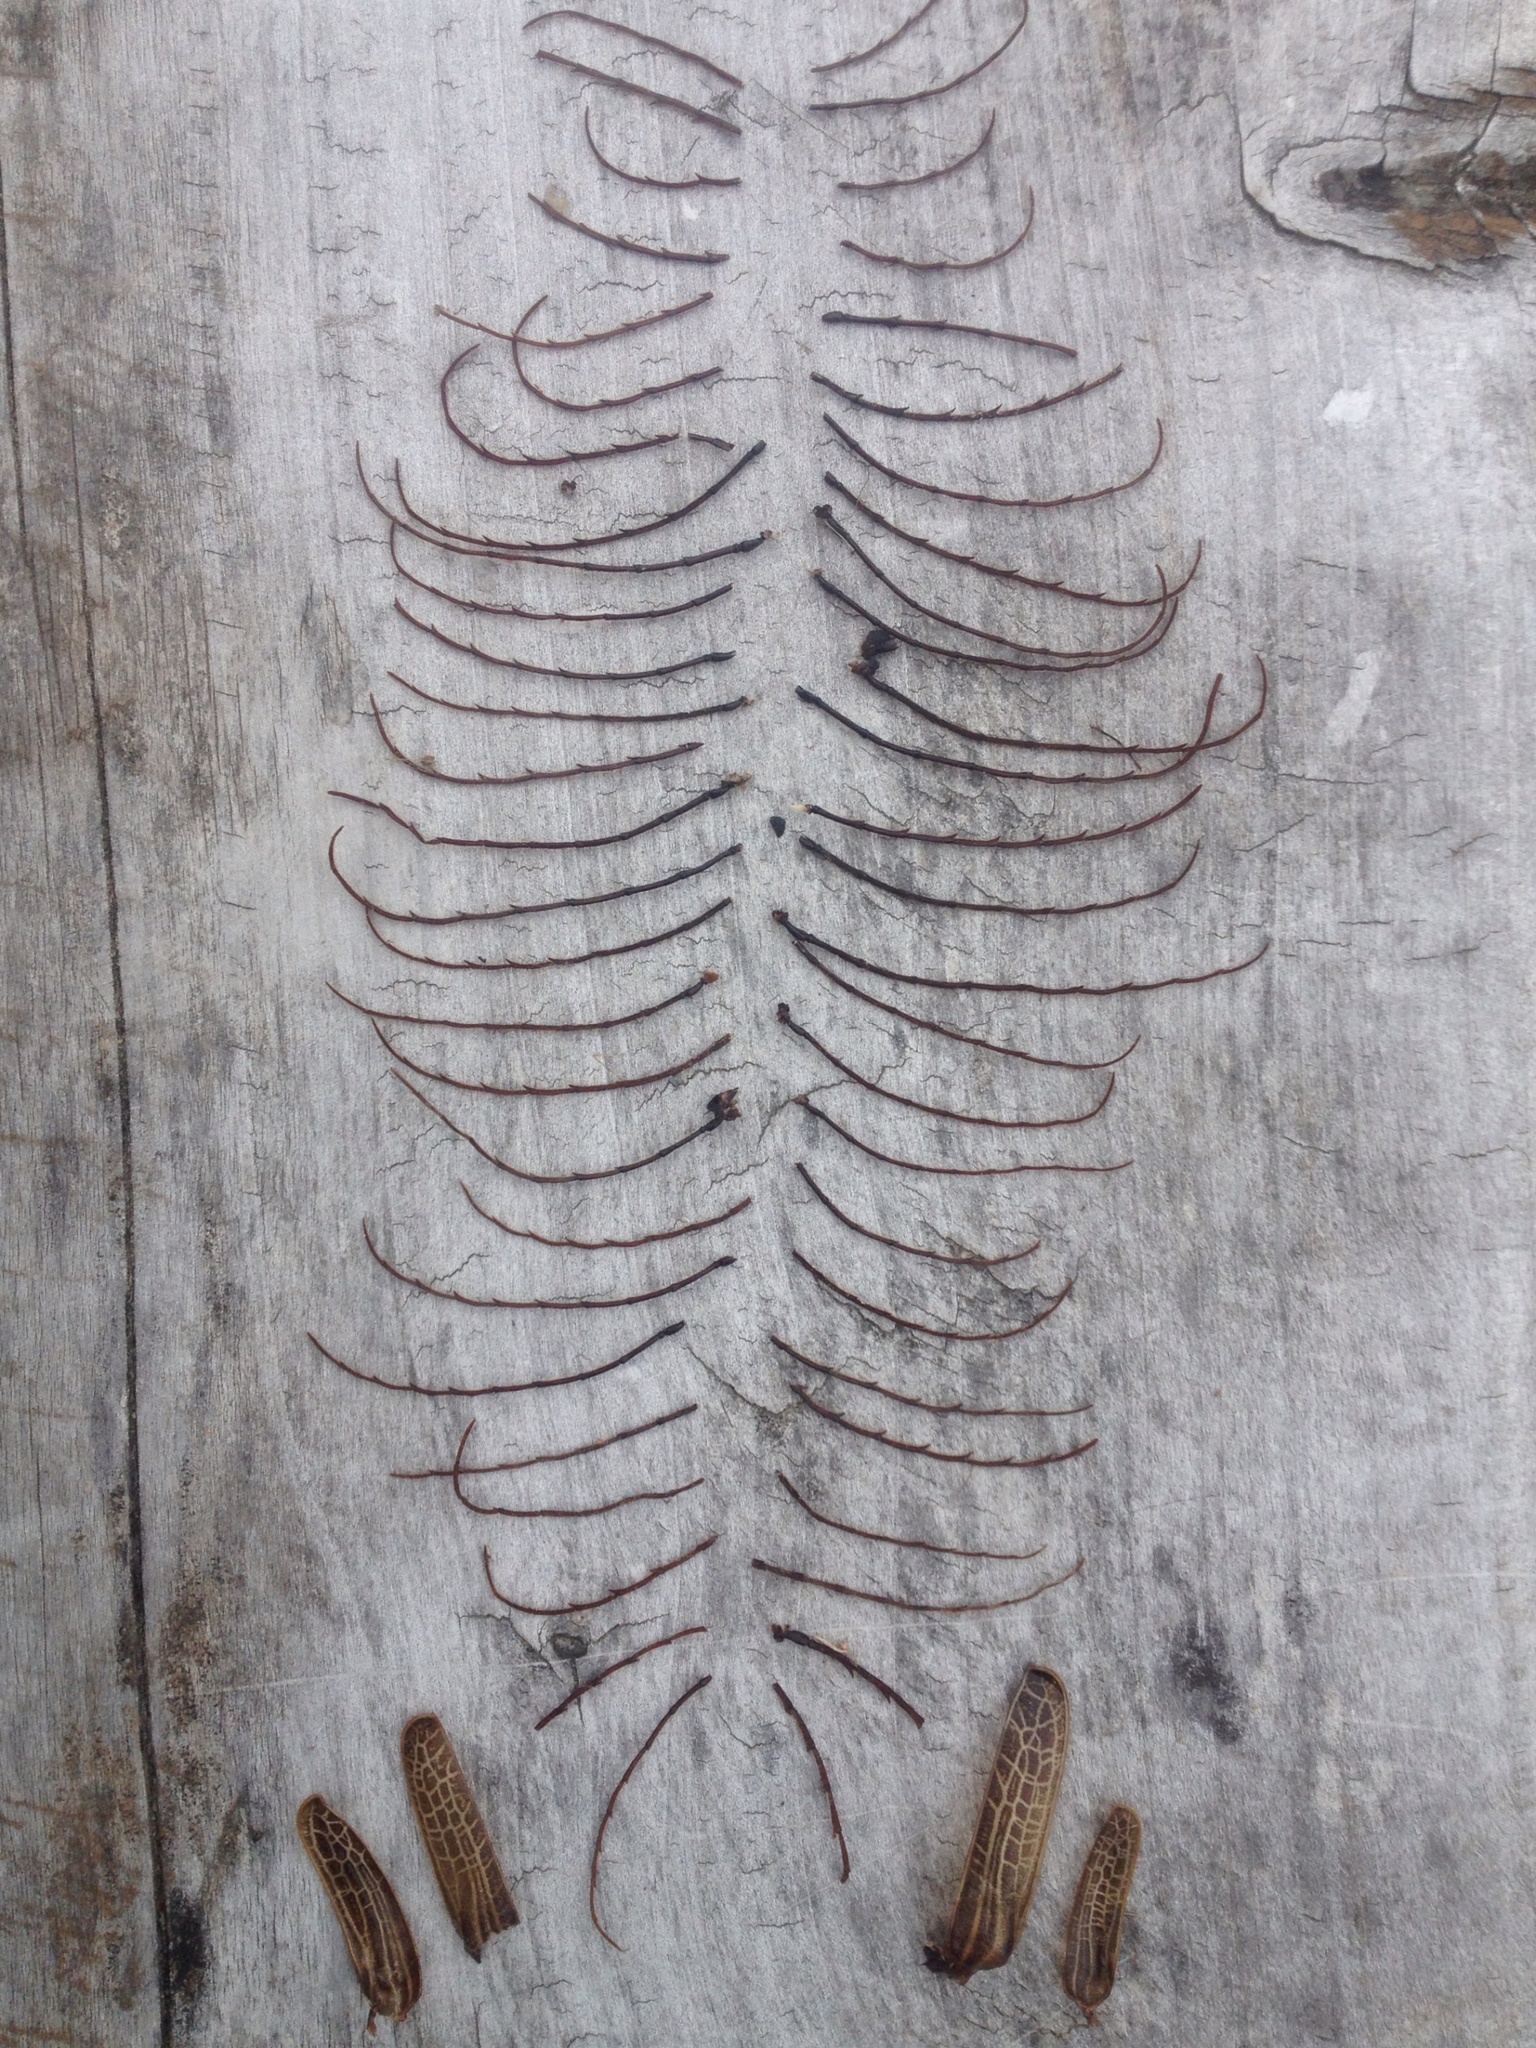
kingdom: Animalia
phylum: Arthropoda
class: Insecta
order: Coleoptera
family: Cerambycidae
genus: Prionoplus
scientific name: Prionoplus reticularis
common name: Huhu beetle
